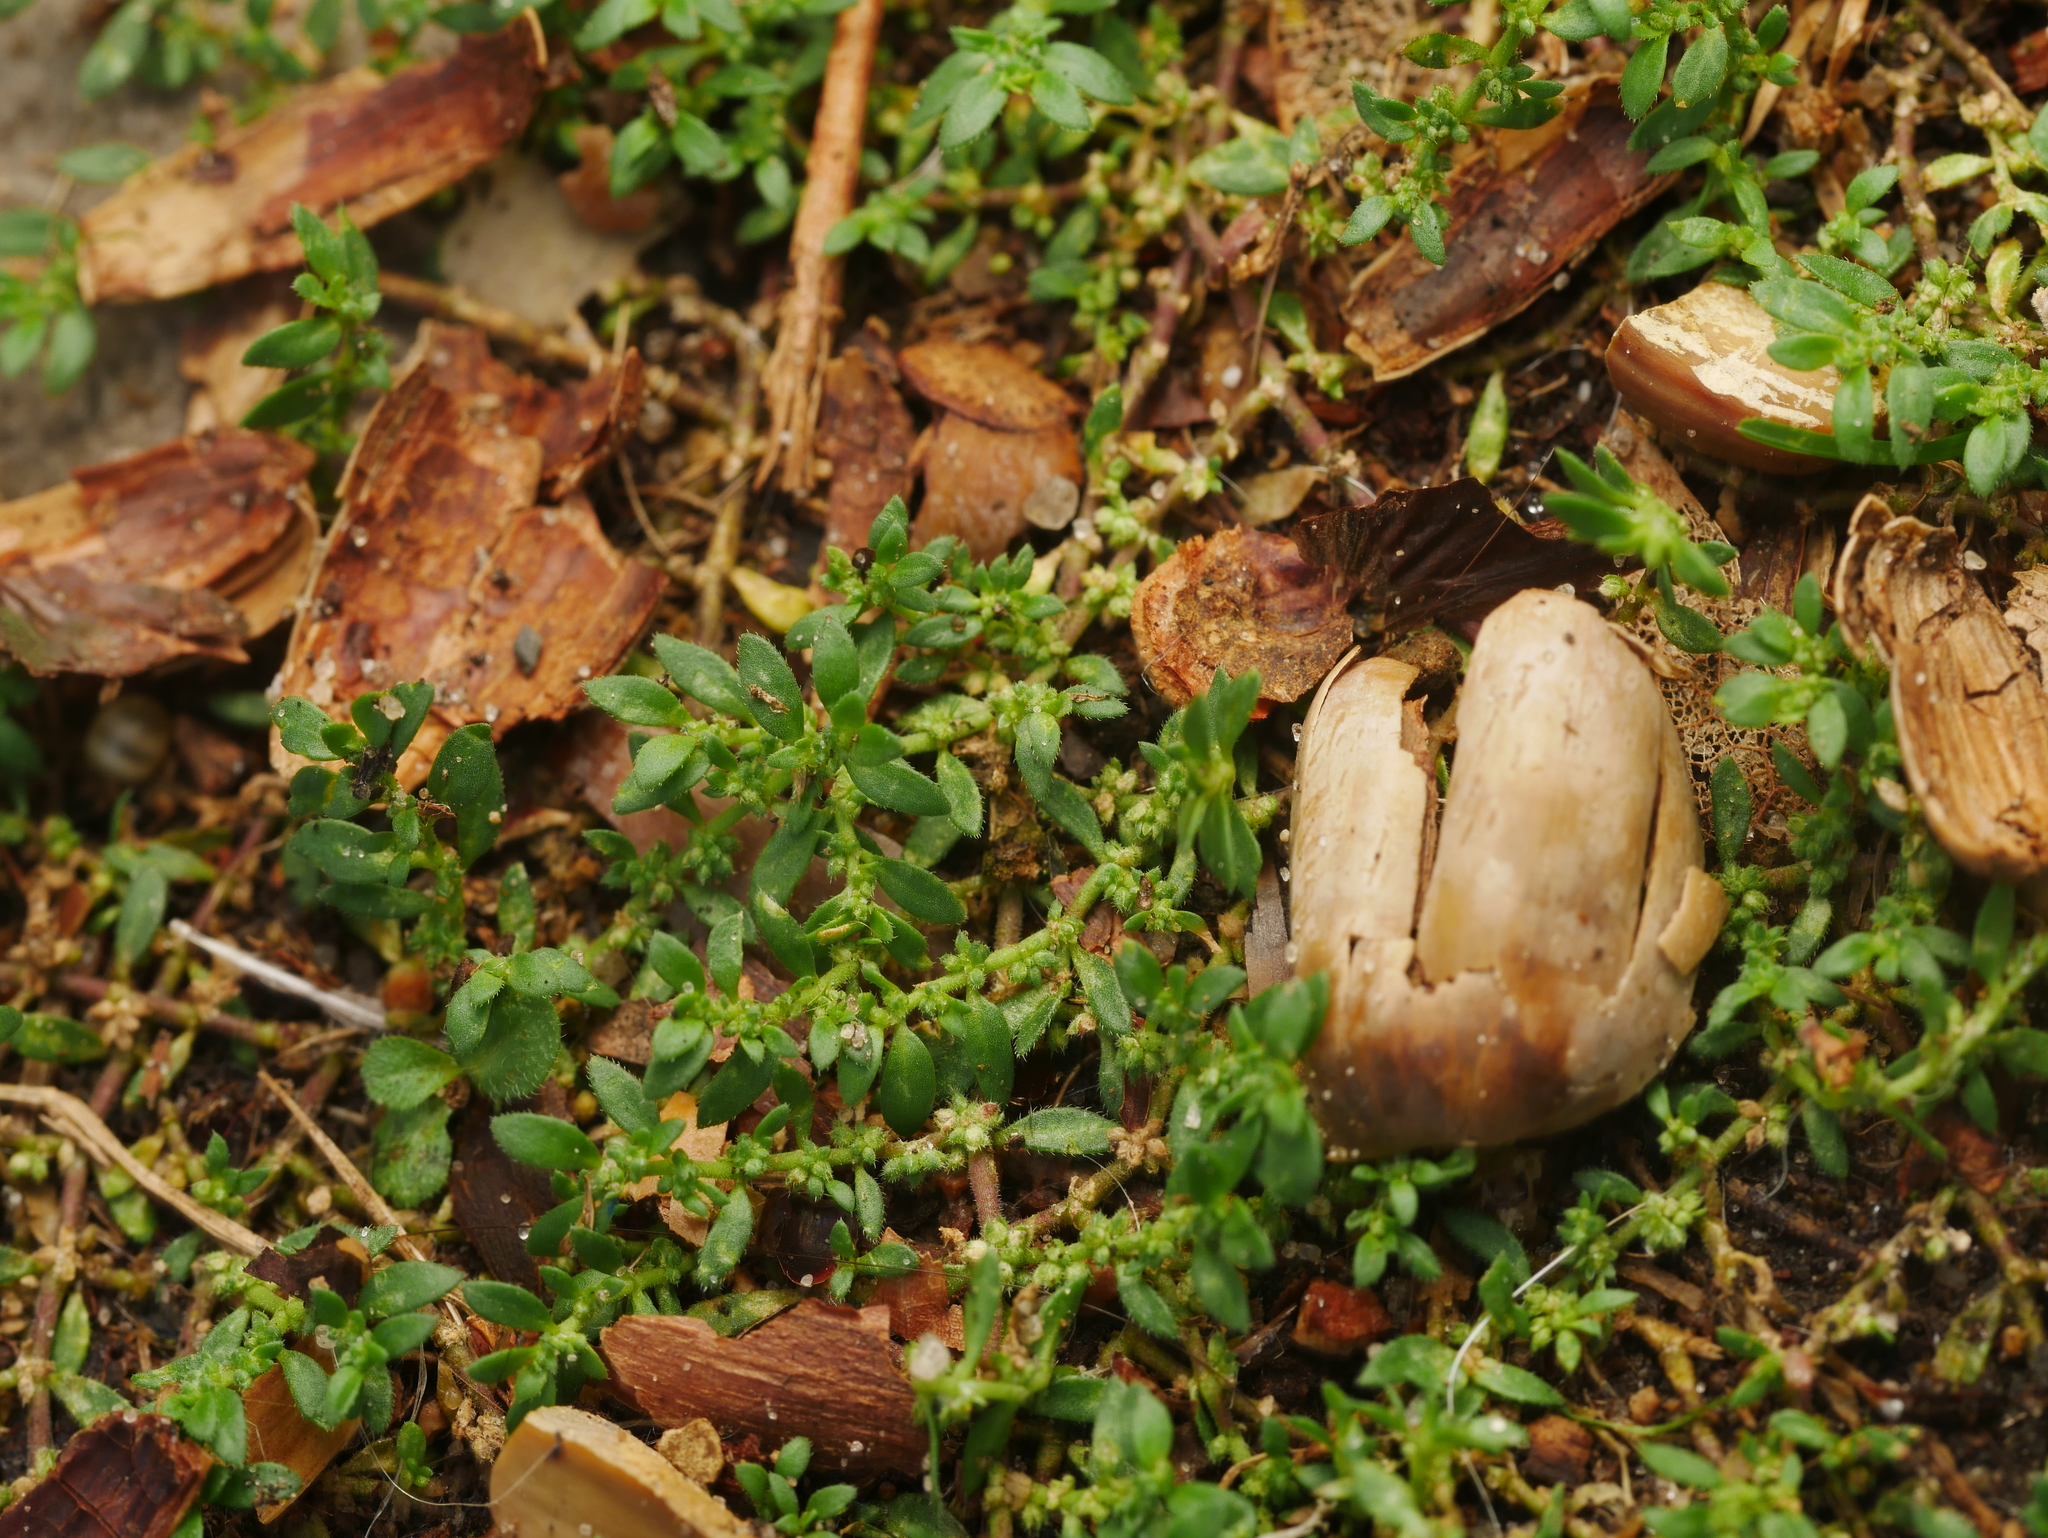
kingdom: Plantae
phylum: Tracheophyta
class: Magnoliopsida
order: Caryophyllales
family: Caryophyllaceae
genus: Herniaria
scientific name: Herniaria hirsuta
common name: Hairy rupturewort
